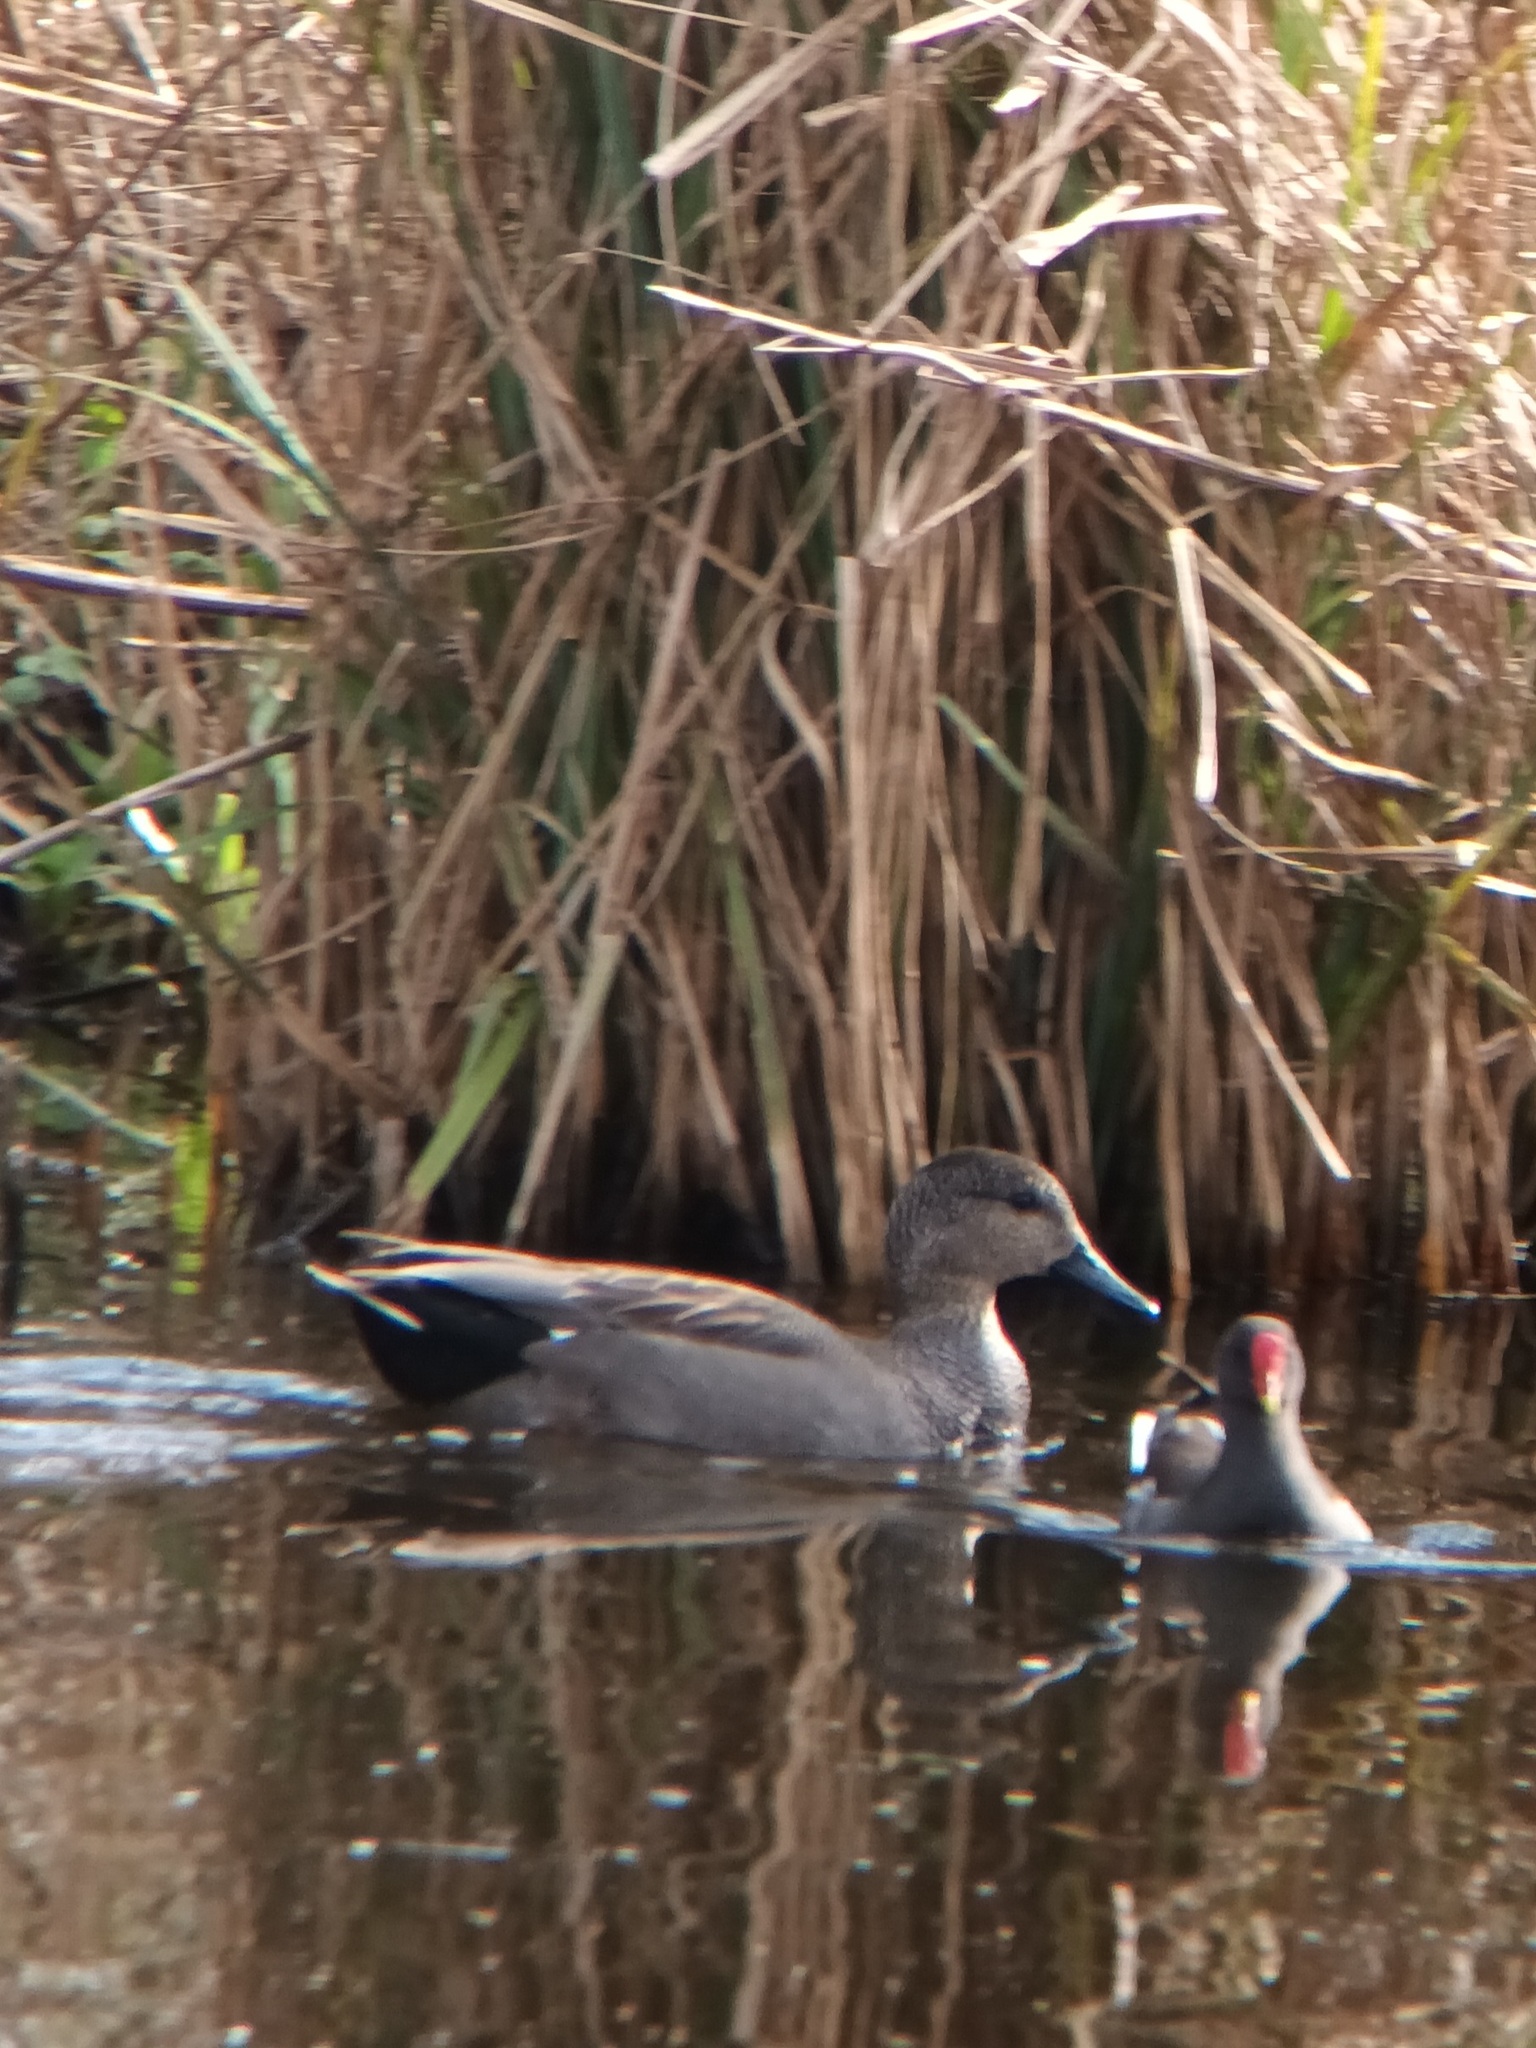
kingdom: Animalia
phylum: Chordata
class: Aves
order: Anseriformes
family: Anatidae
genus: Mareca
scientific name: Mareca strepera
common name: Gadwall
